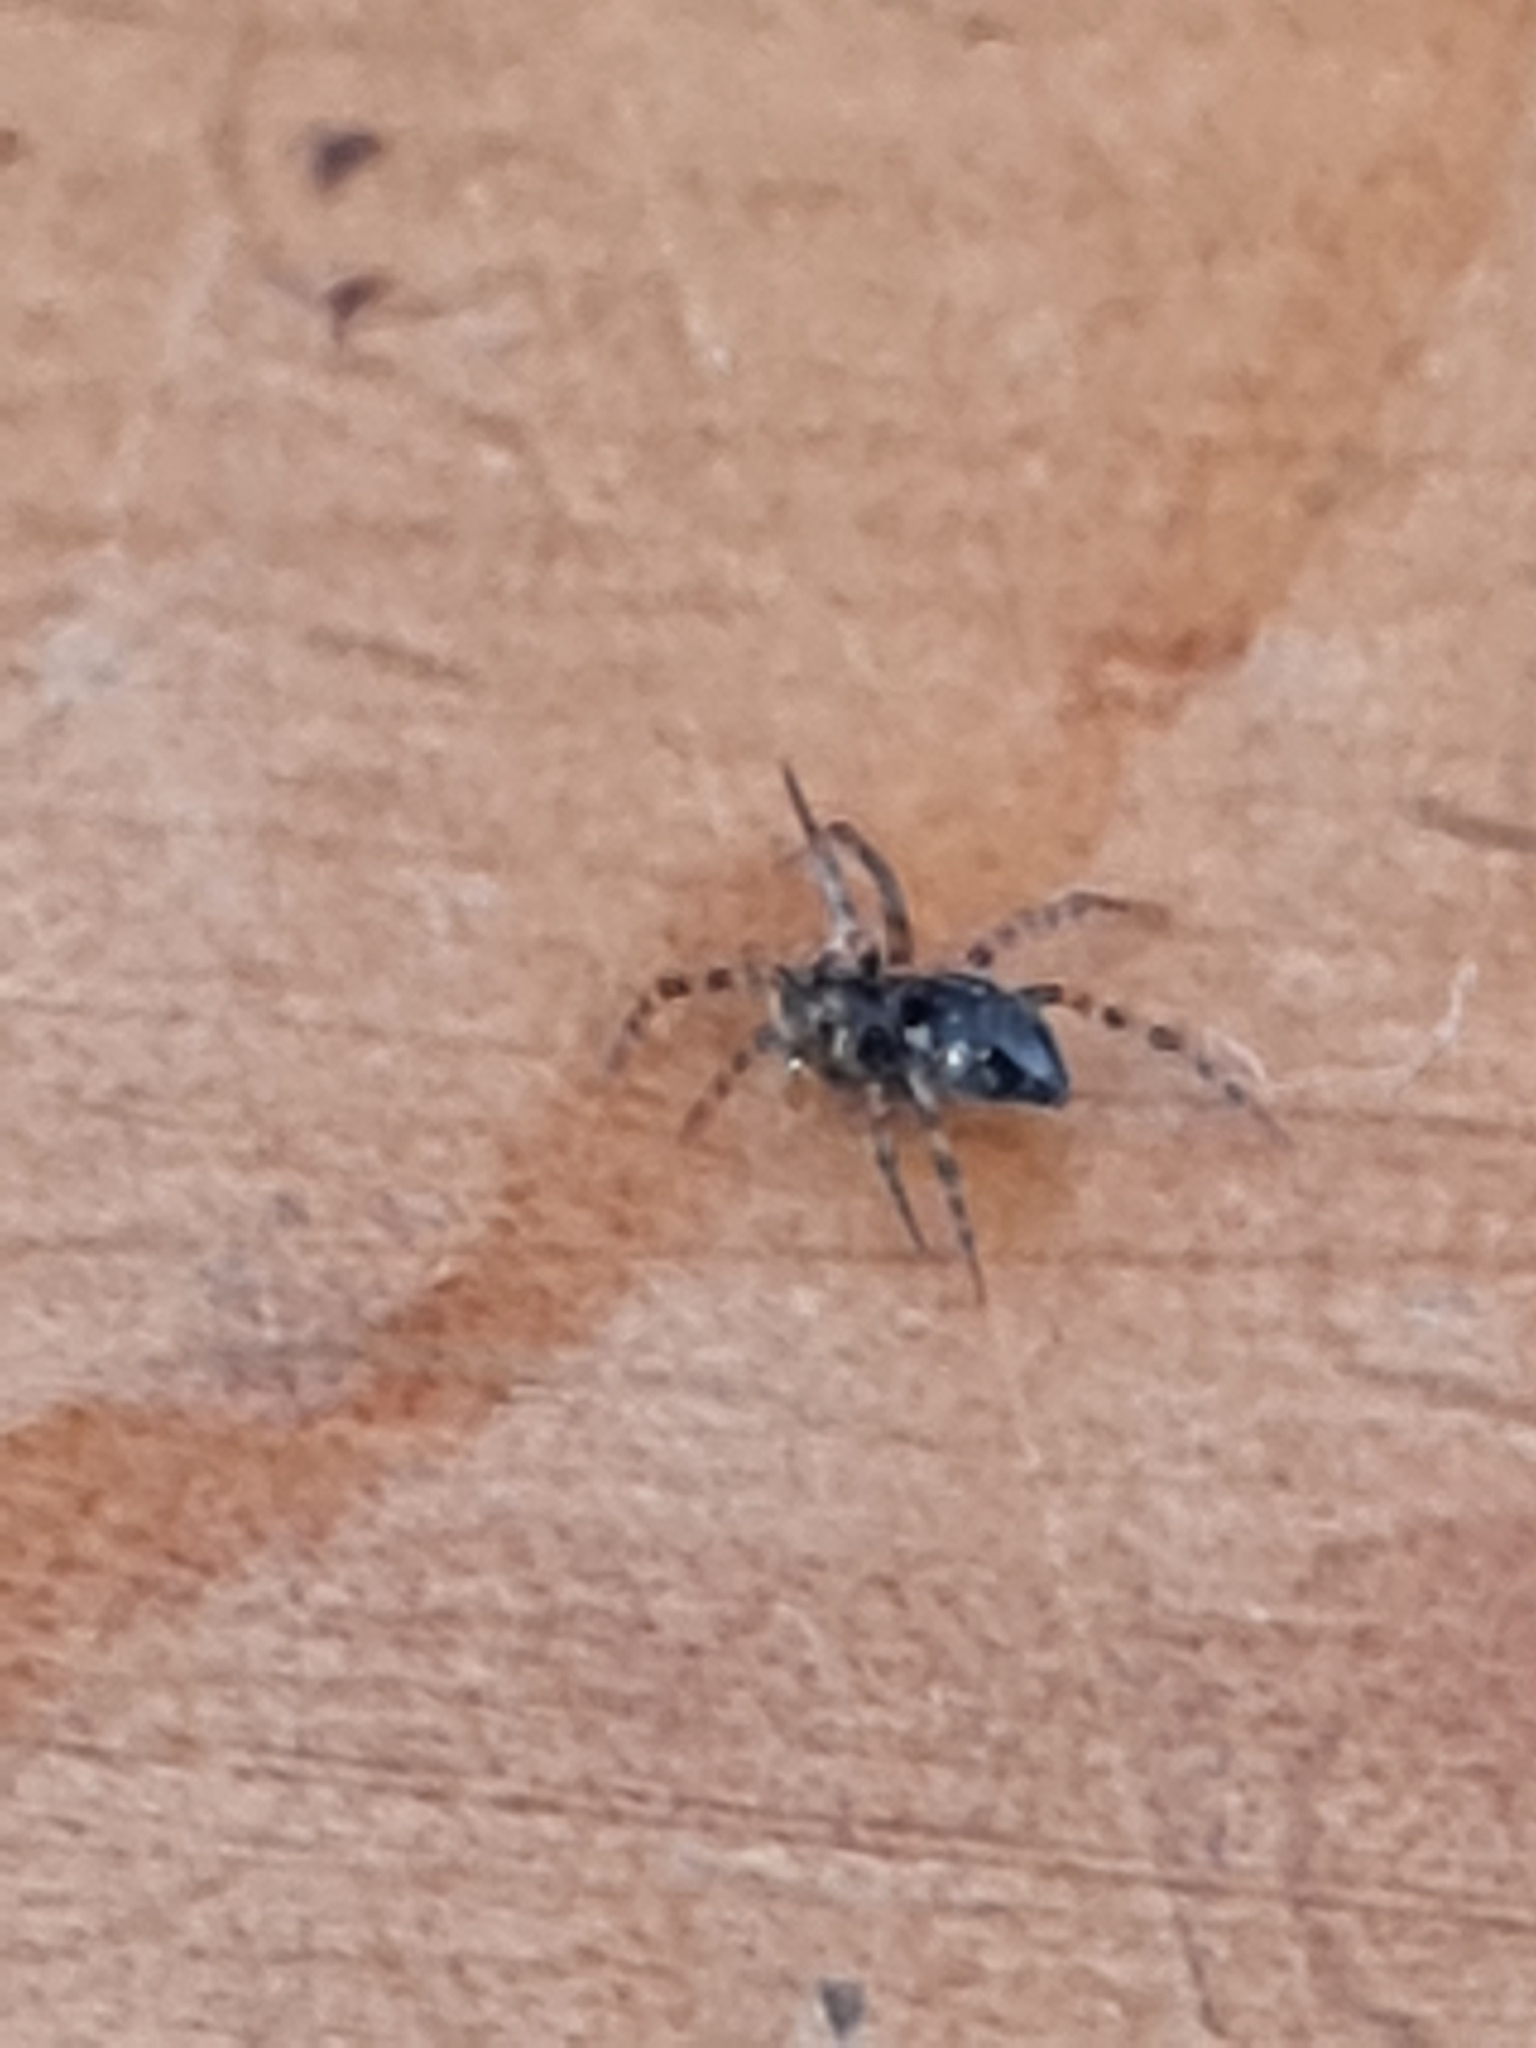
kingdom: Animalia
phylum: Arthropoda
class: Arachnida
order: Araneae
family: Corinnidae
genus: Nyssus
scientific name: Nyssus coloripes
